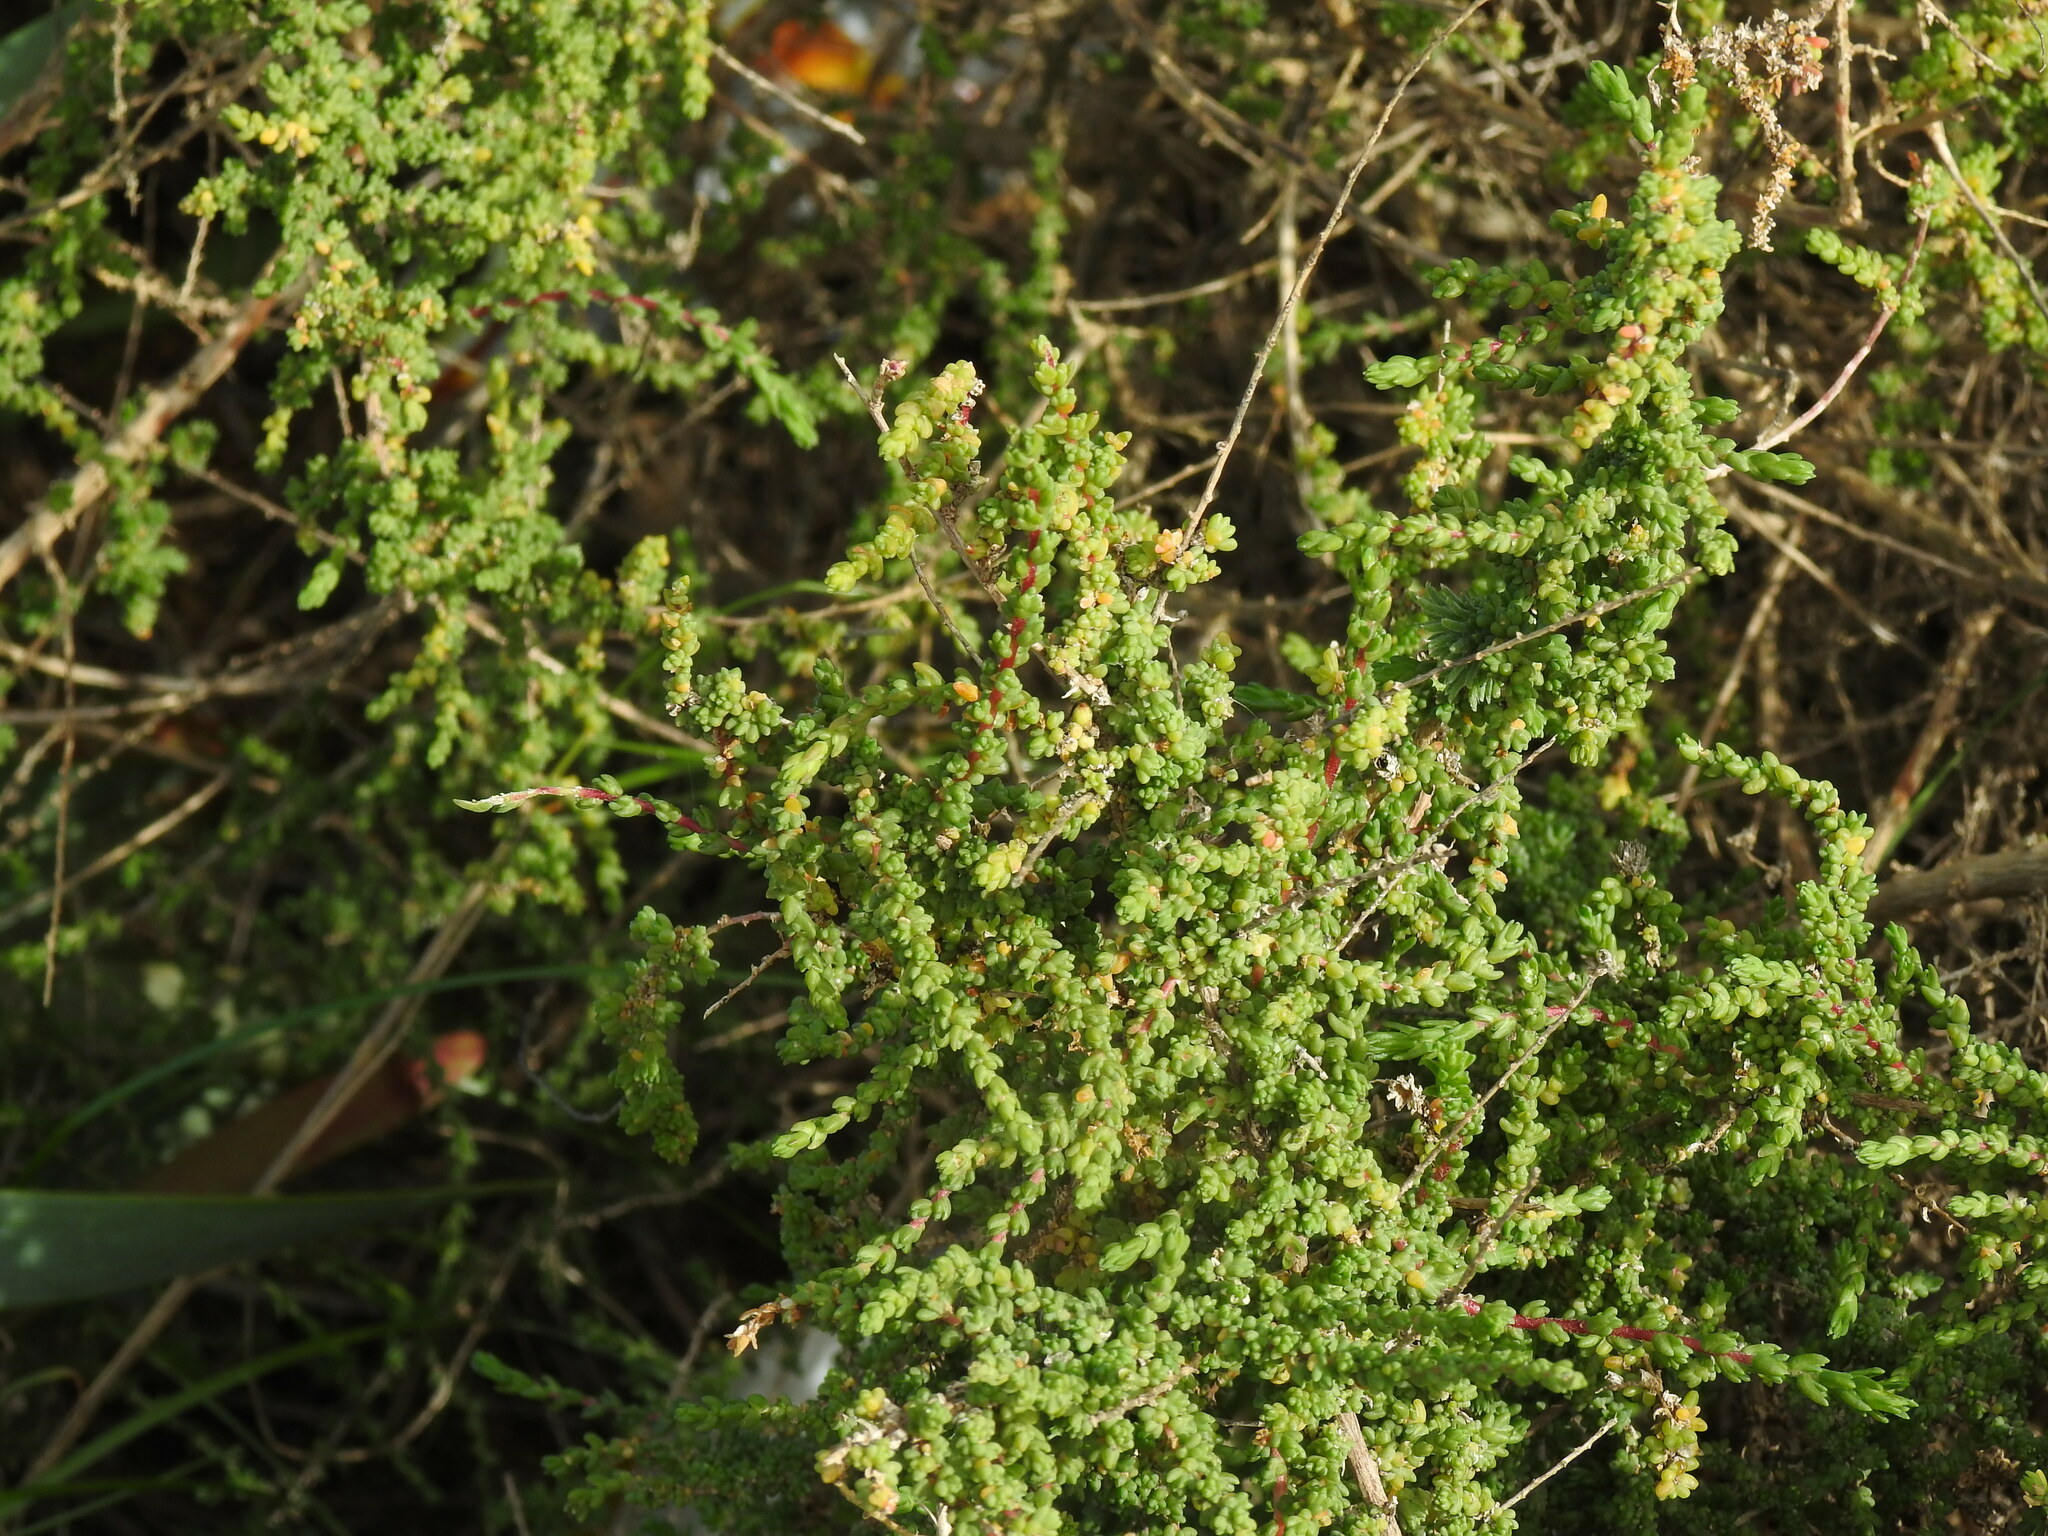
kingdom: Plantae
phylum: Tracheophyta
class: Magnoliopsida
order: Caryophyllales
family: Amaranthaceae
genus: Nitrosalsola
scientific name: Nitrosalsola vermiculata
